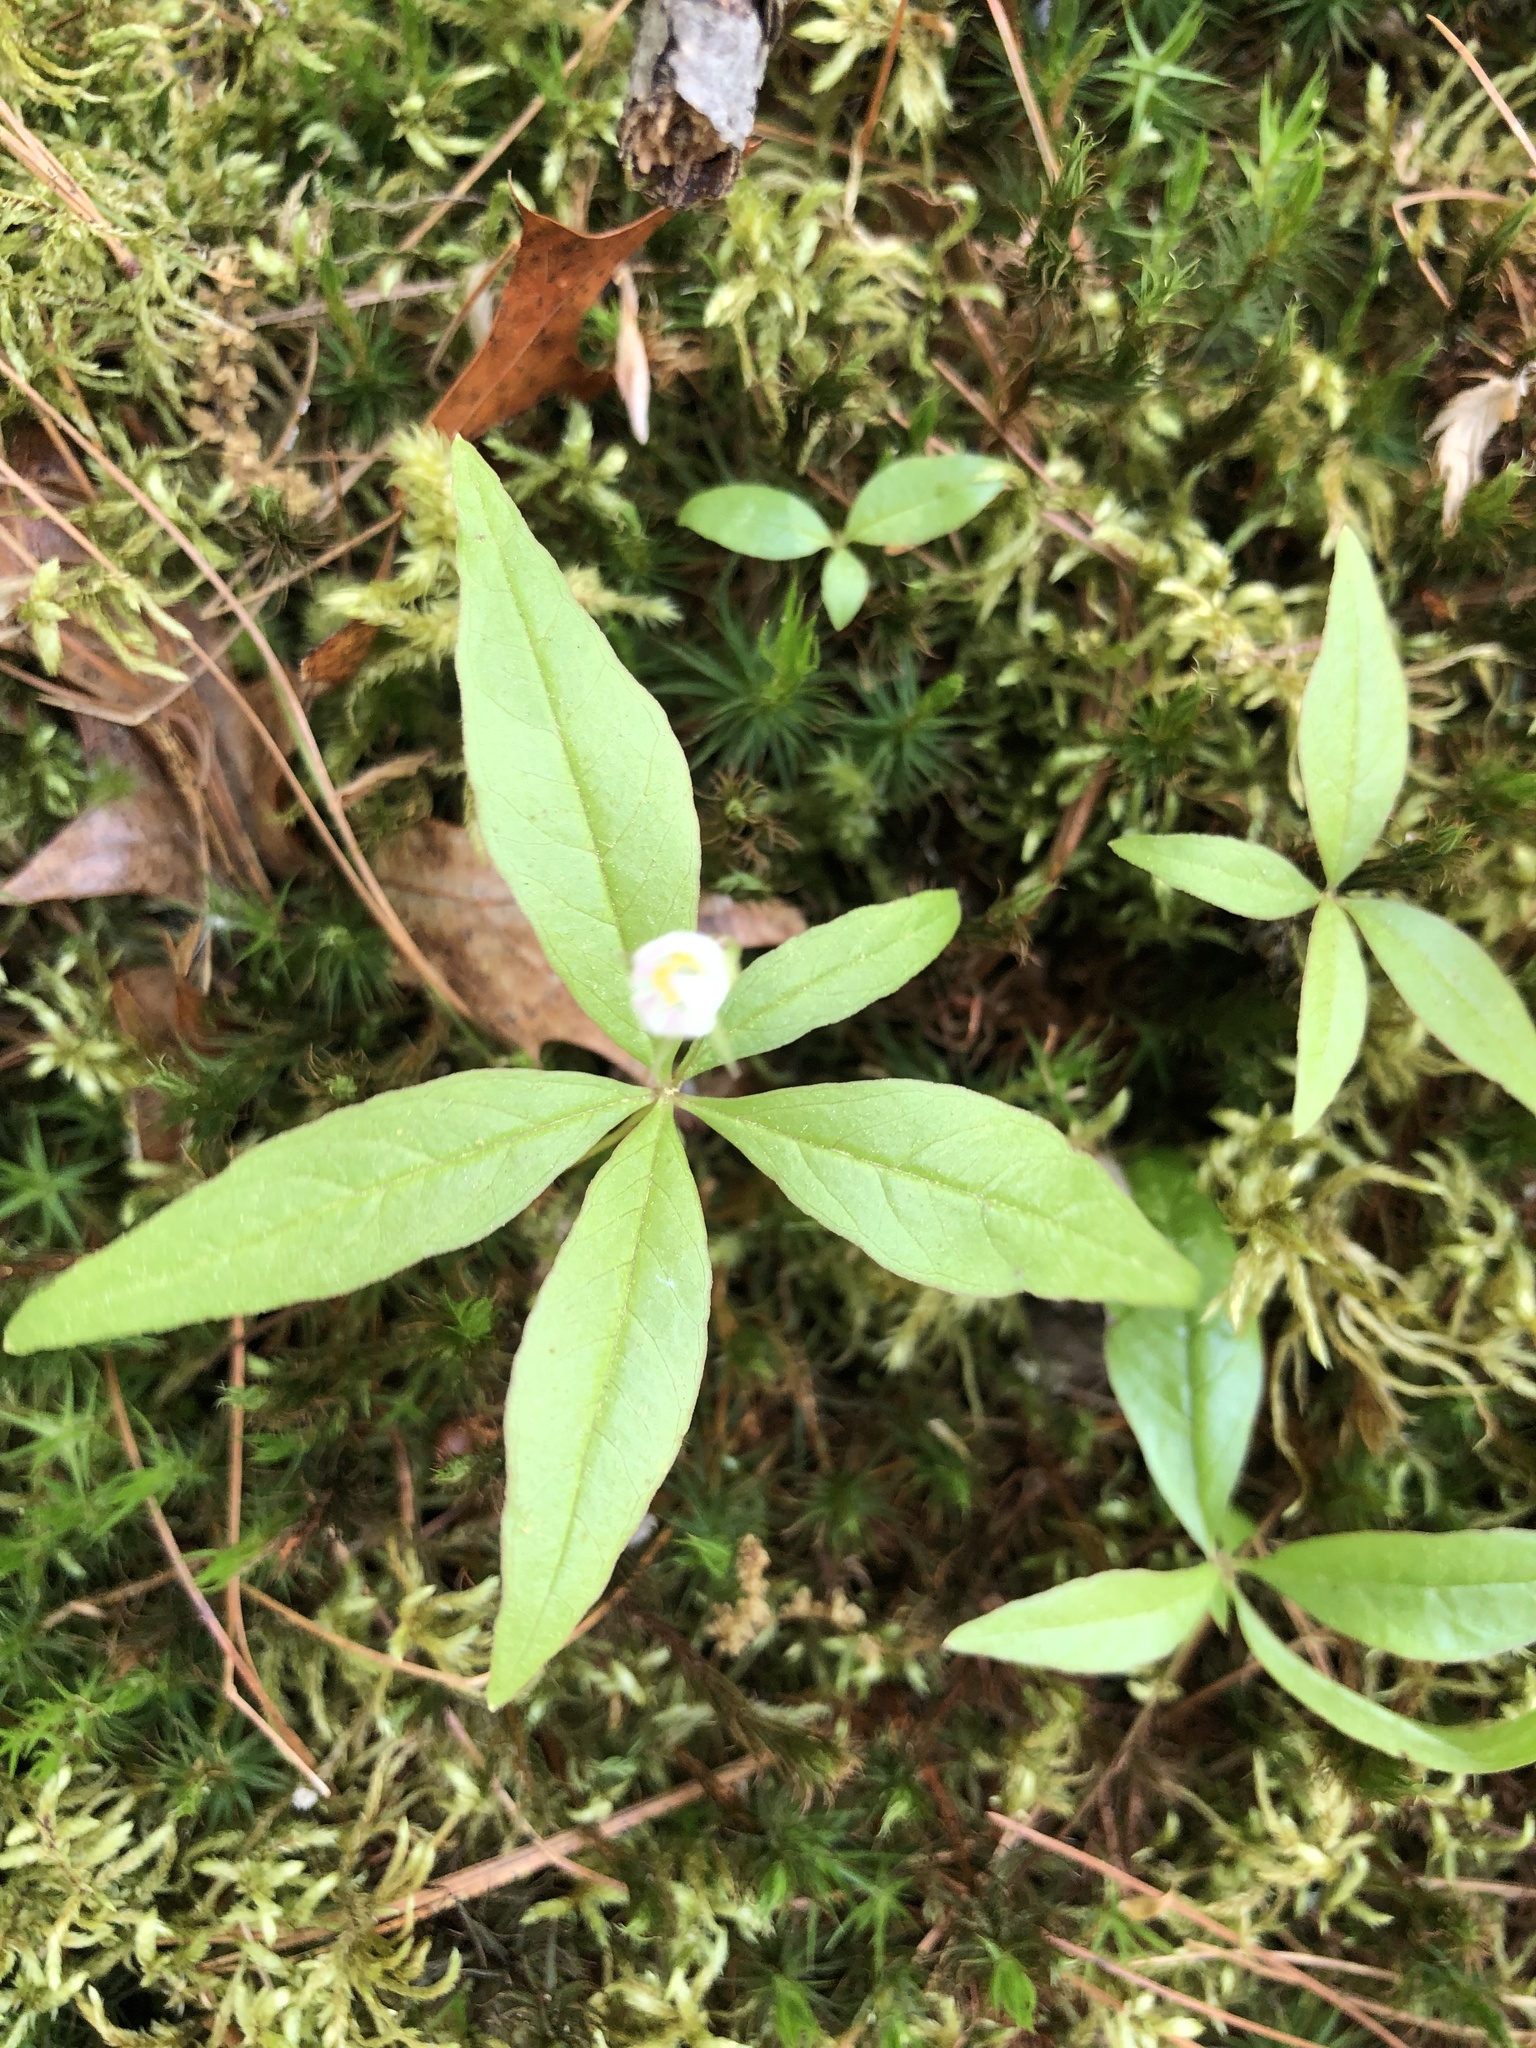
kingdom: Plantae
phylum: Tracheophyta
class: Magnoliopsida
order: Ericales
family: Primulaceae
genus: Lysimachia
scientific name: Lysimachia borealis
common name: American starflower
